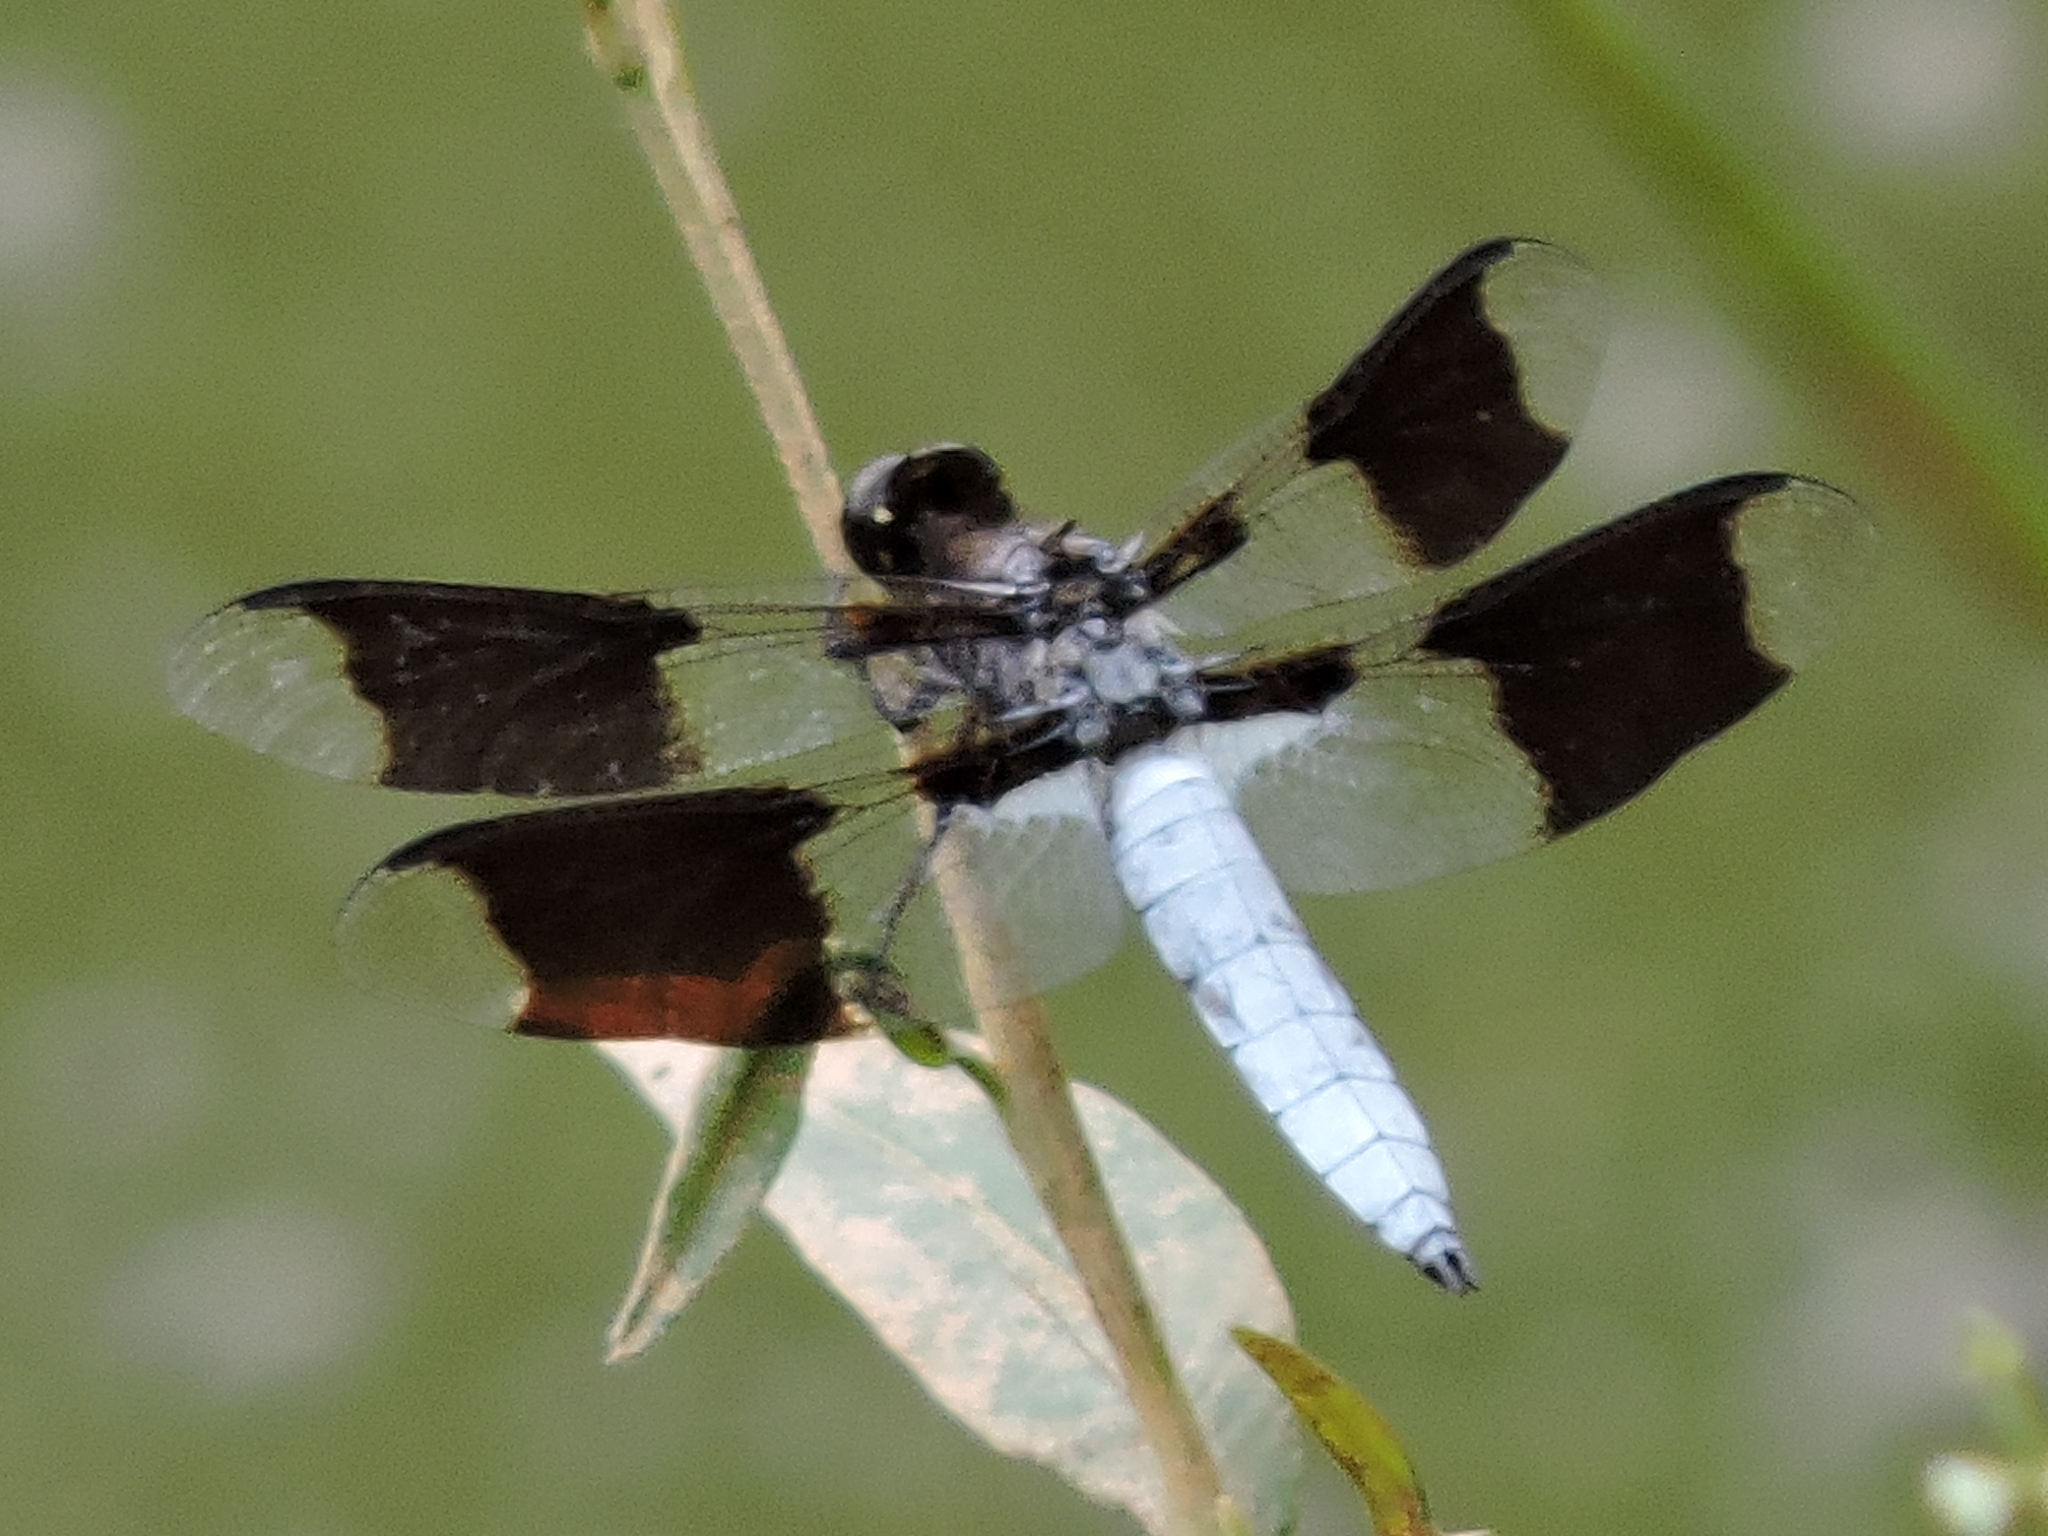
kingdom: Animalia
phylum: Arthropoda
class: Insecta
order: Odonata
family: Libellulidae
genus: Plathemis
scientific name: Plathemis lydia
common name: Common whitetail
